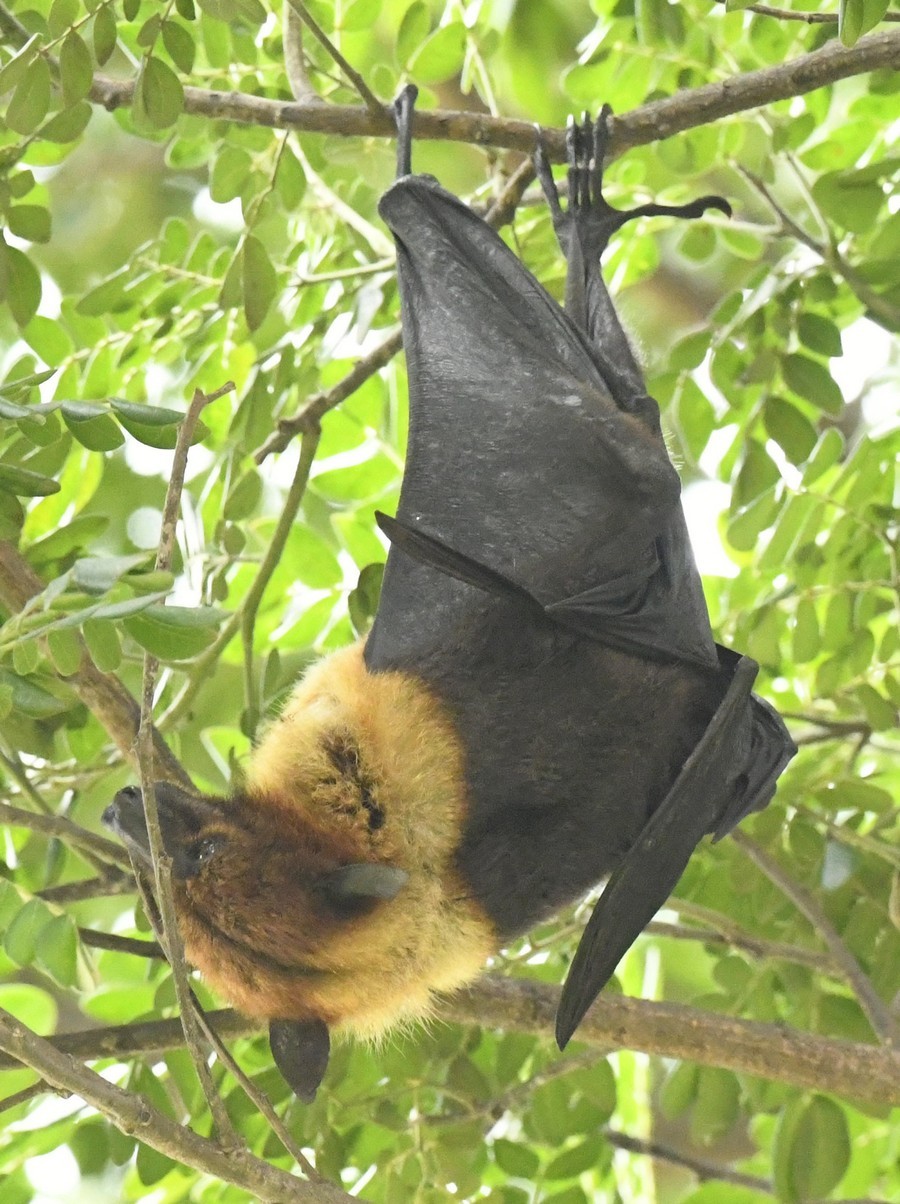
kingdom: Animalia
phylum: Chordata
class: Mammalia
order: Chiroptera
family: Pteropodidae
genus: Pteropus
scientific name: Pteropus vampyrus
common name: Large flying fox
